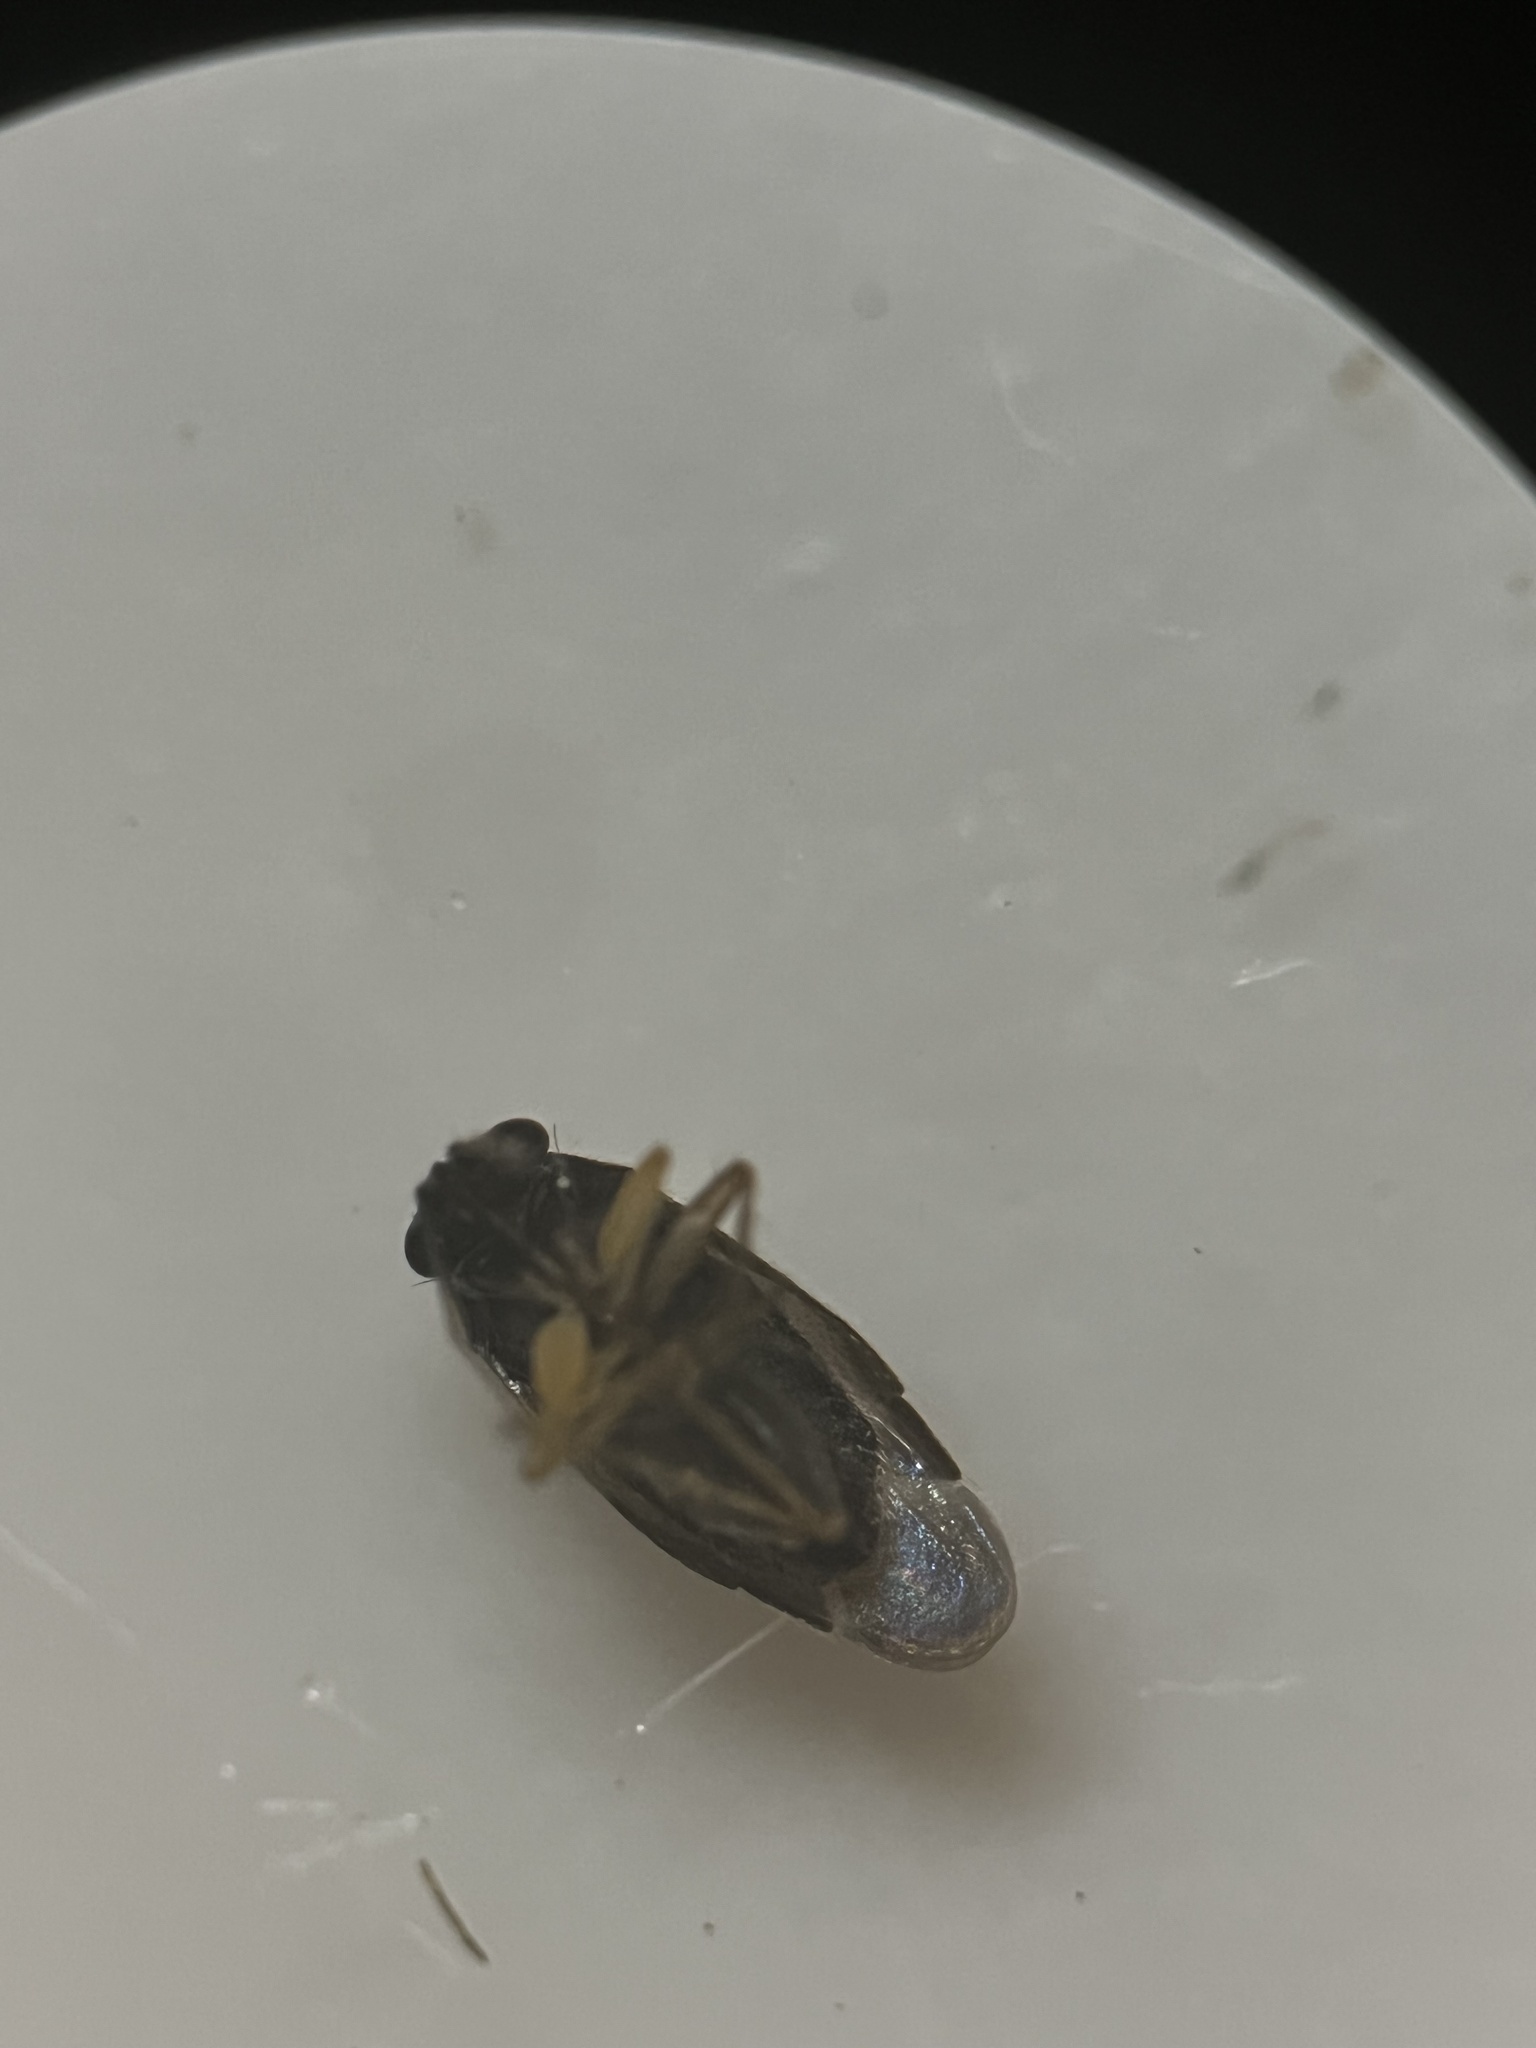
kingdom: Animalia
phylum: Arthropoda
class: Insecta
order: Hemiptera
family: Miridae
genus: Chlamydatus
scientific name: Chlamydatus associatus
